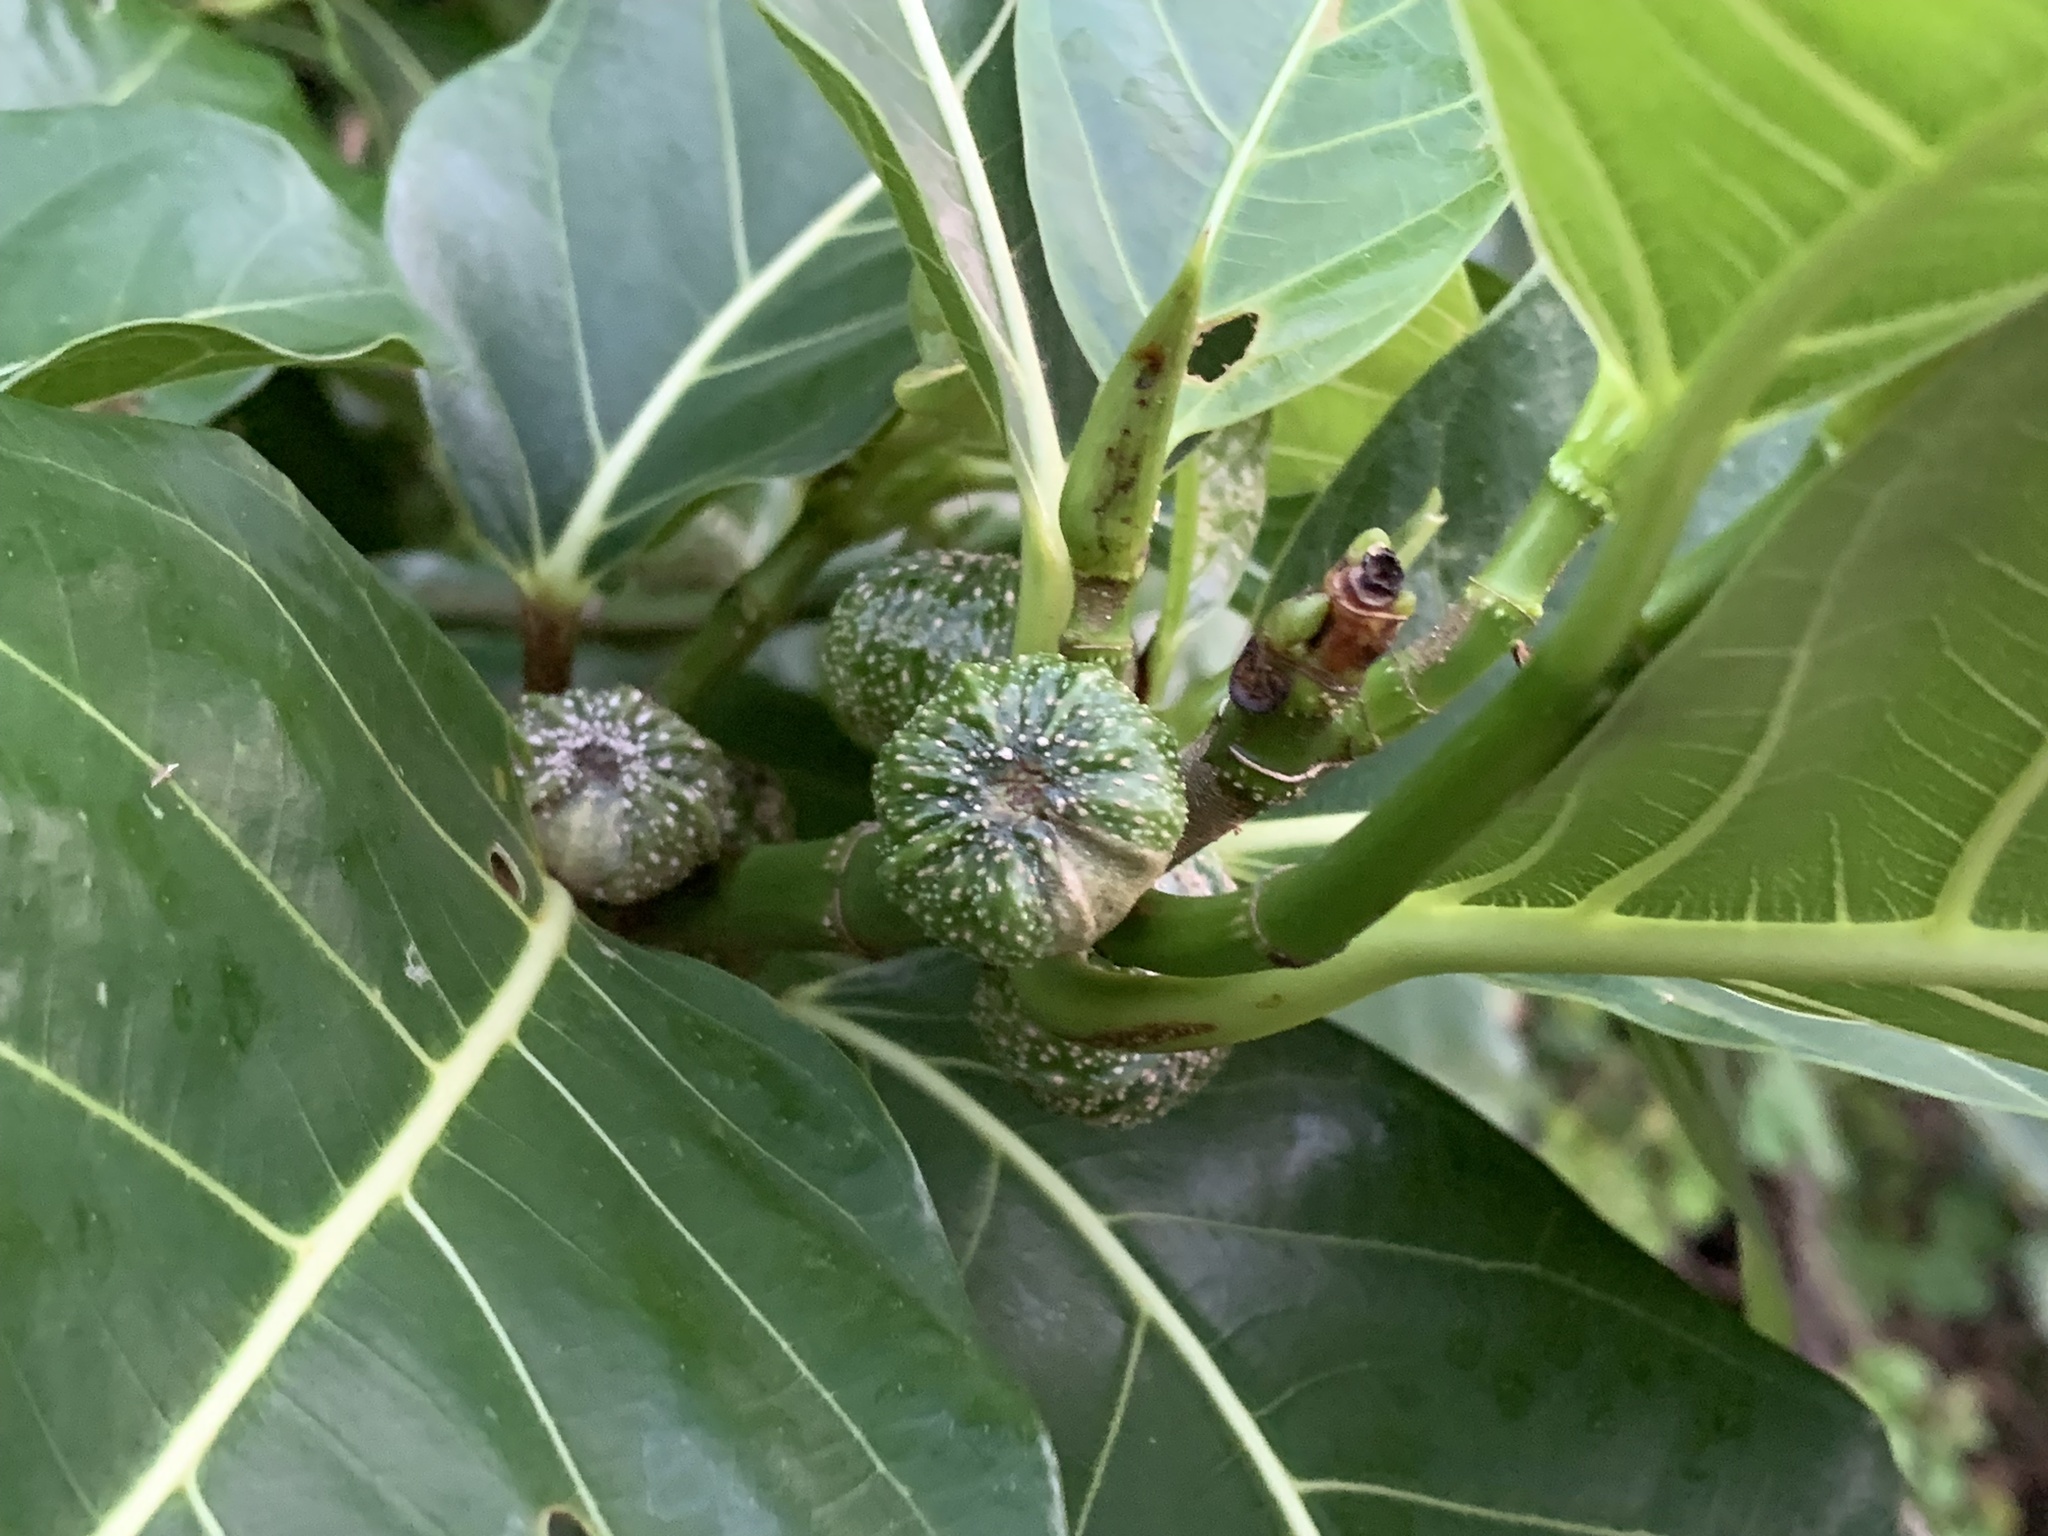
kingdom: Plantae
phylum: Tracheophyta
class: Magnoliopsida
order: Rosales
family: Moraceae
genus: Ficus
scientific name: Ficus septica
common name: Septic fig
